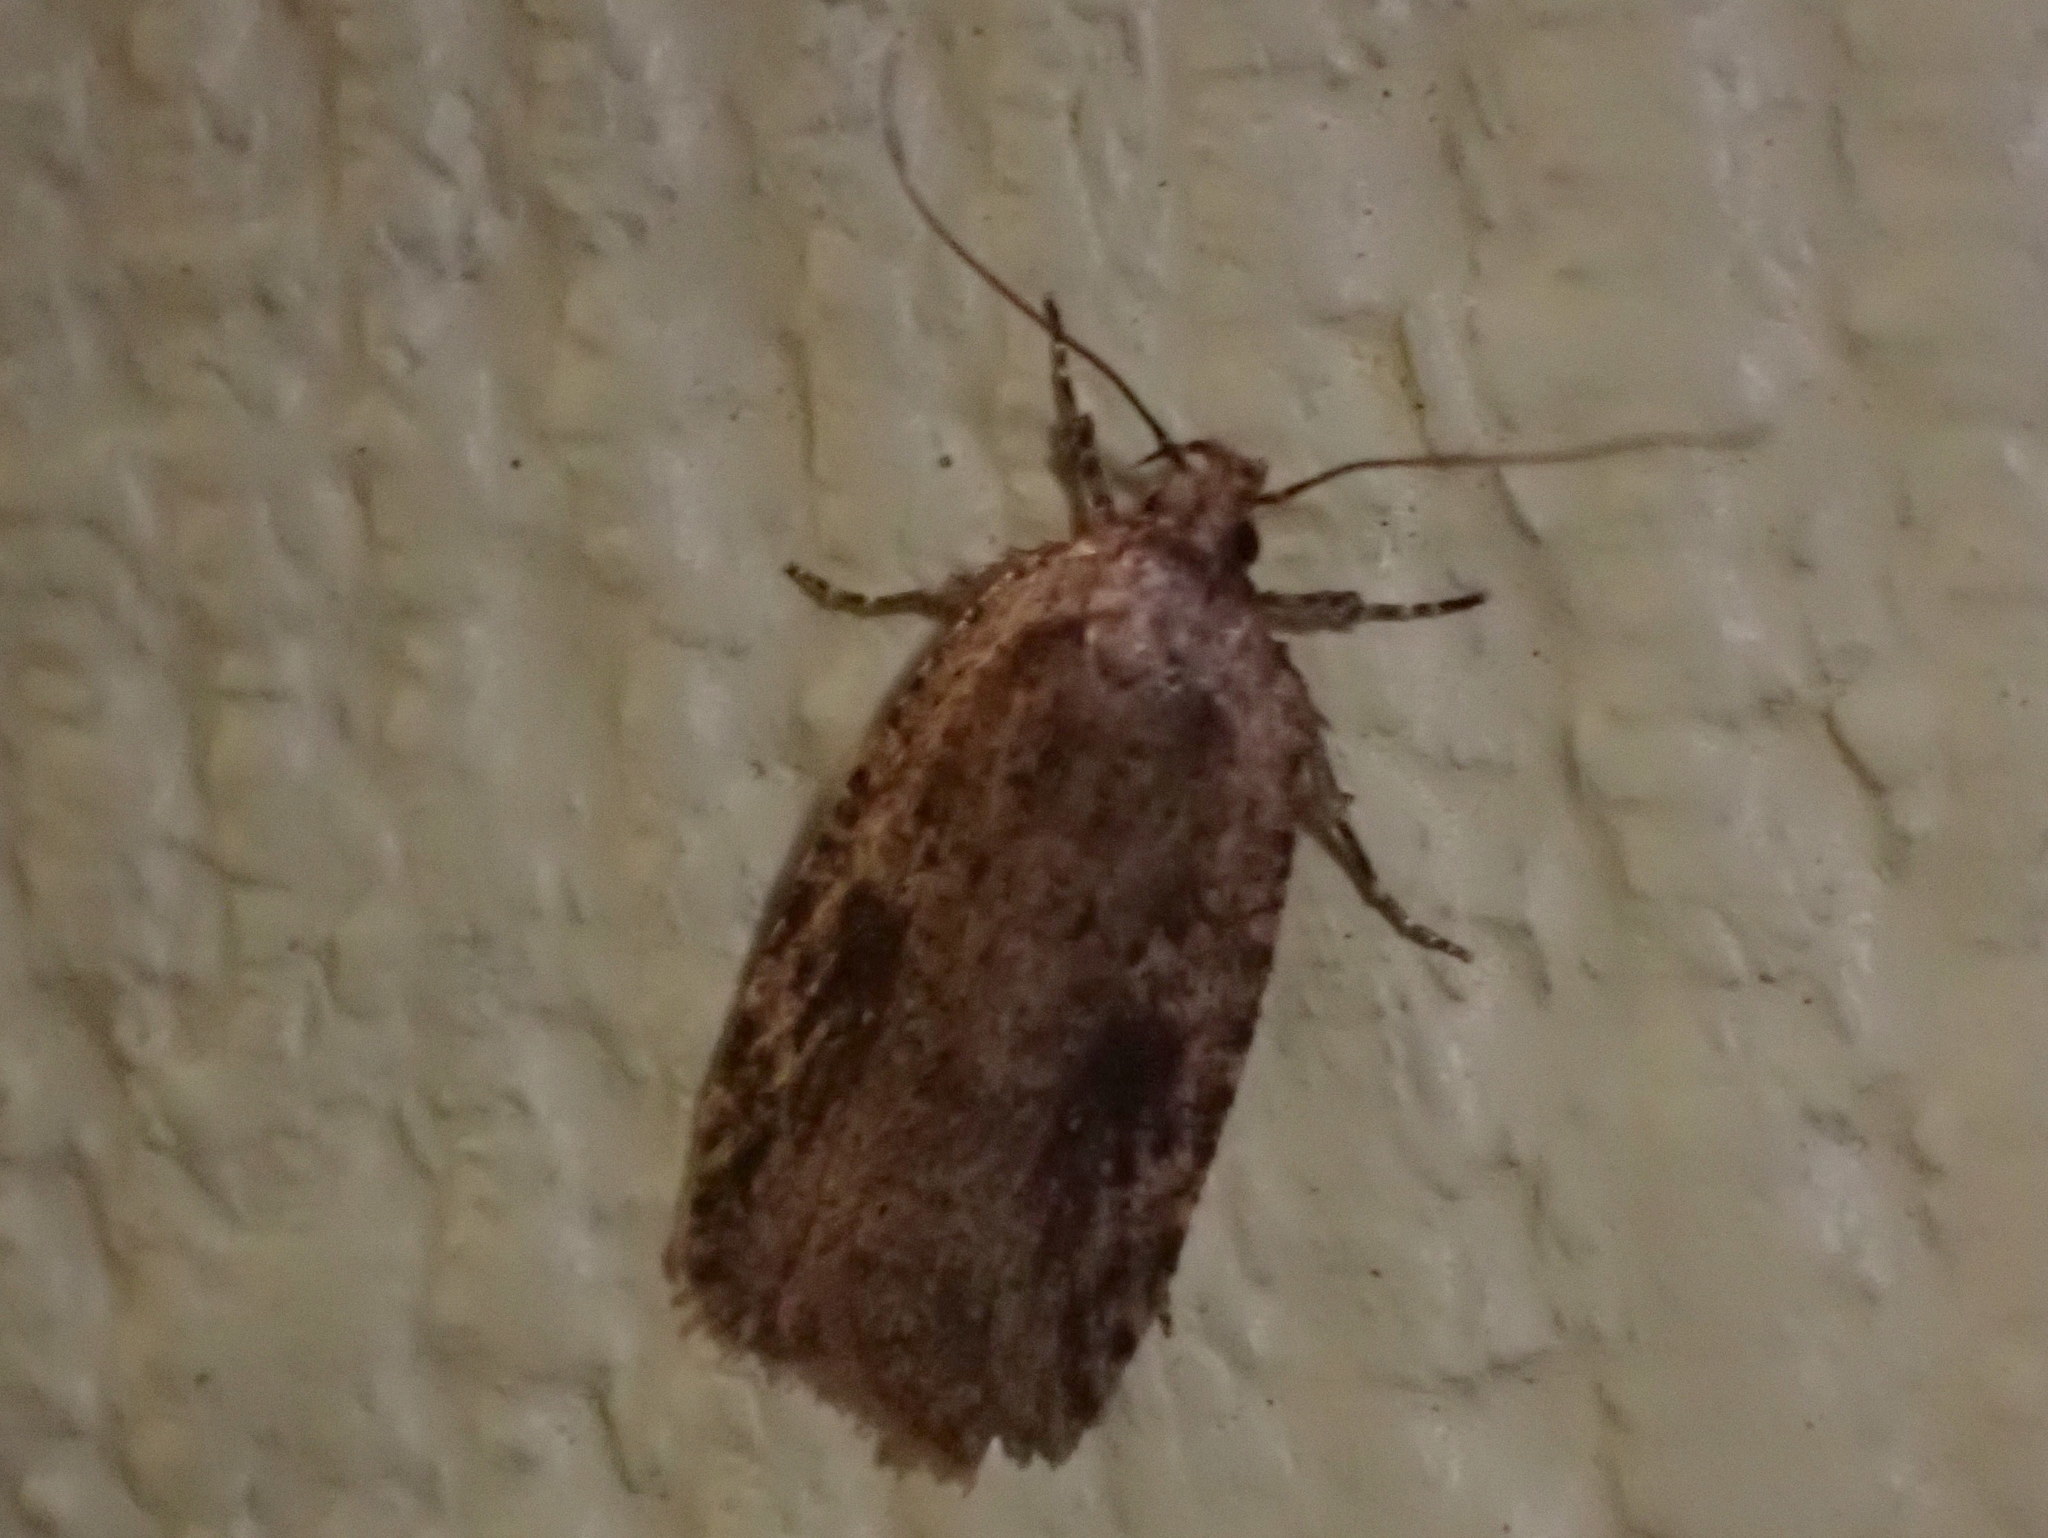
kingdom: Animalia
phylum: Arthropoda
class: Insecta
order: Lepidoptera
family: Depressariidae
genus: Agonopterix
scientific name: Agonopterix pulvipennella
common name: Goldenrod leafffolder
